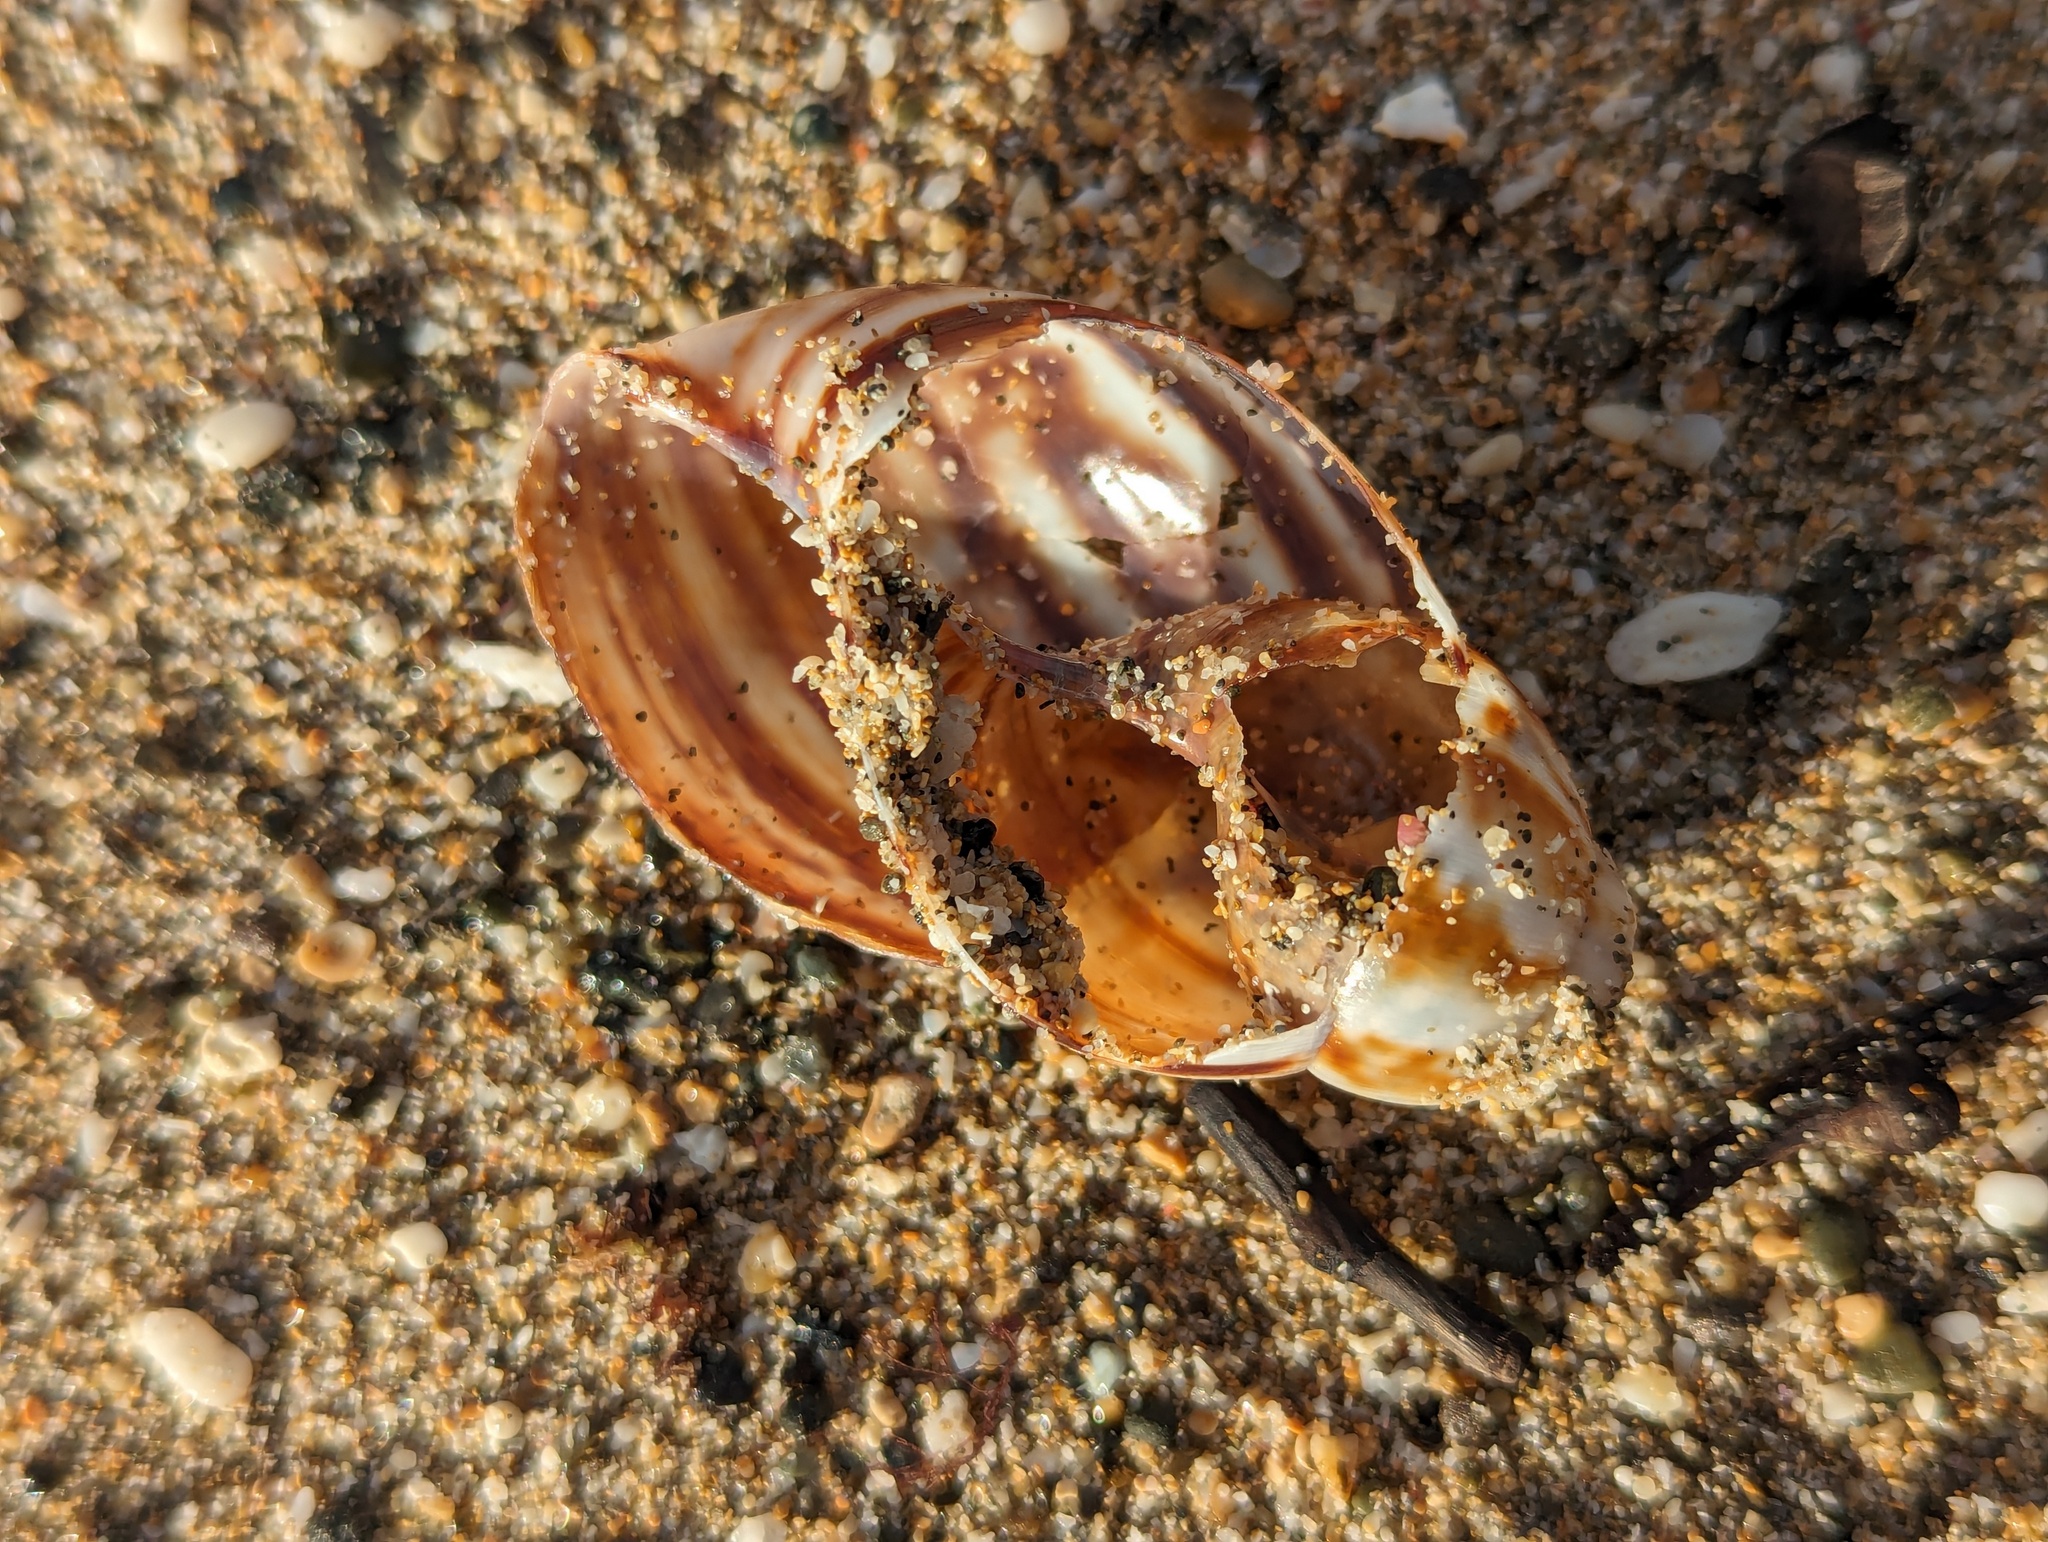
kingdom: Animalia
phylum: Mollusca
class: Gastropoda
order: Stylommatophora
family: Achatinidae
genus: Lissachatina
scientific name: Lissachatina fulica
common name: Giant african snail
